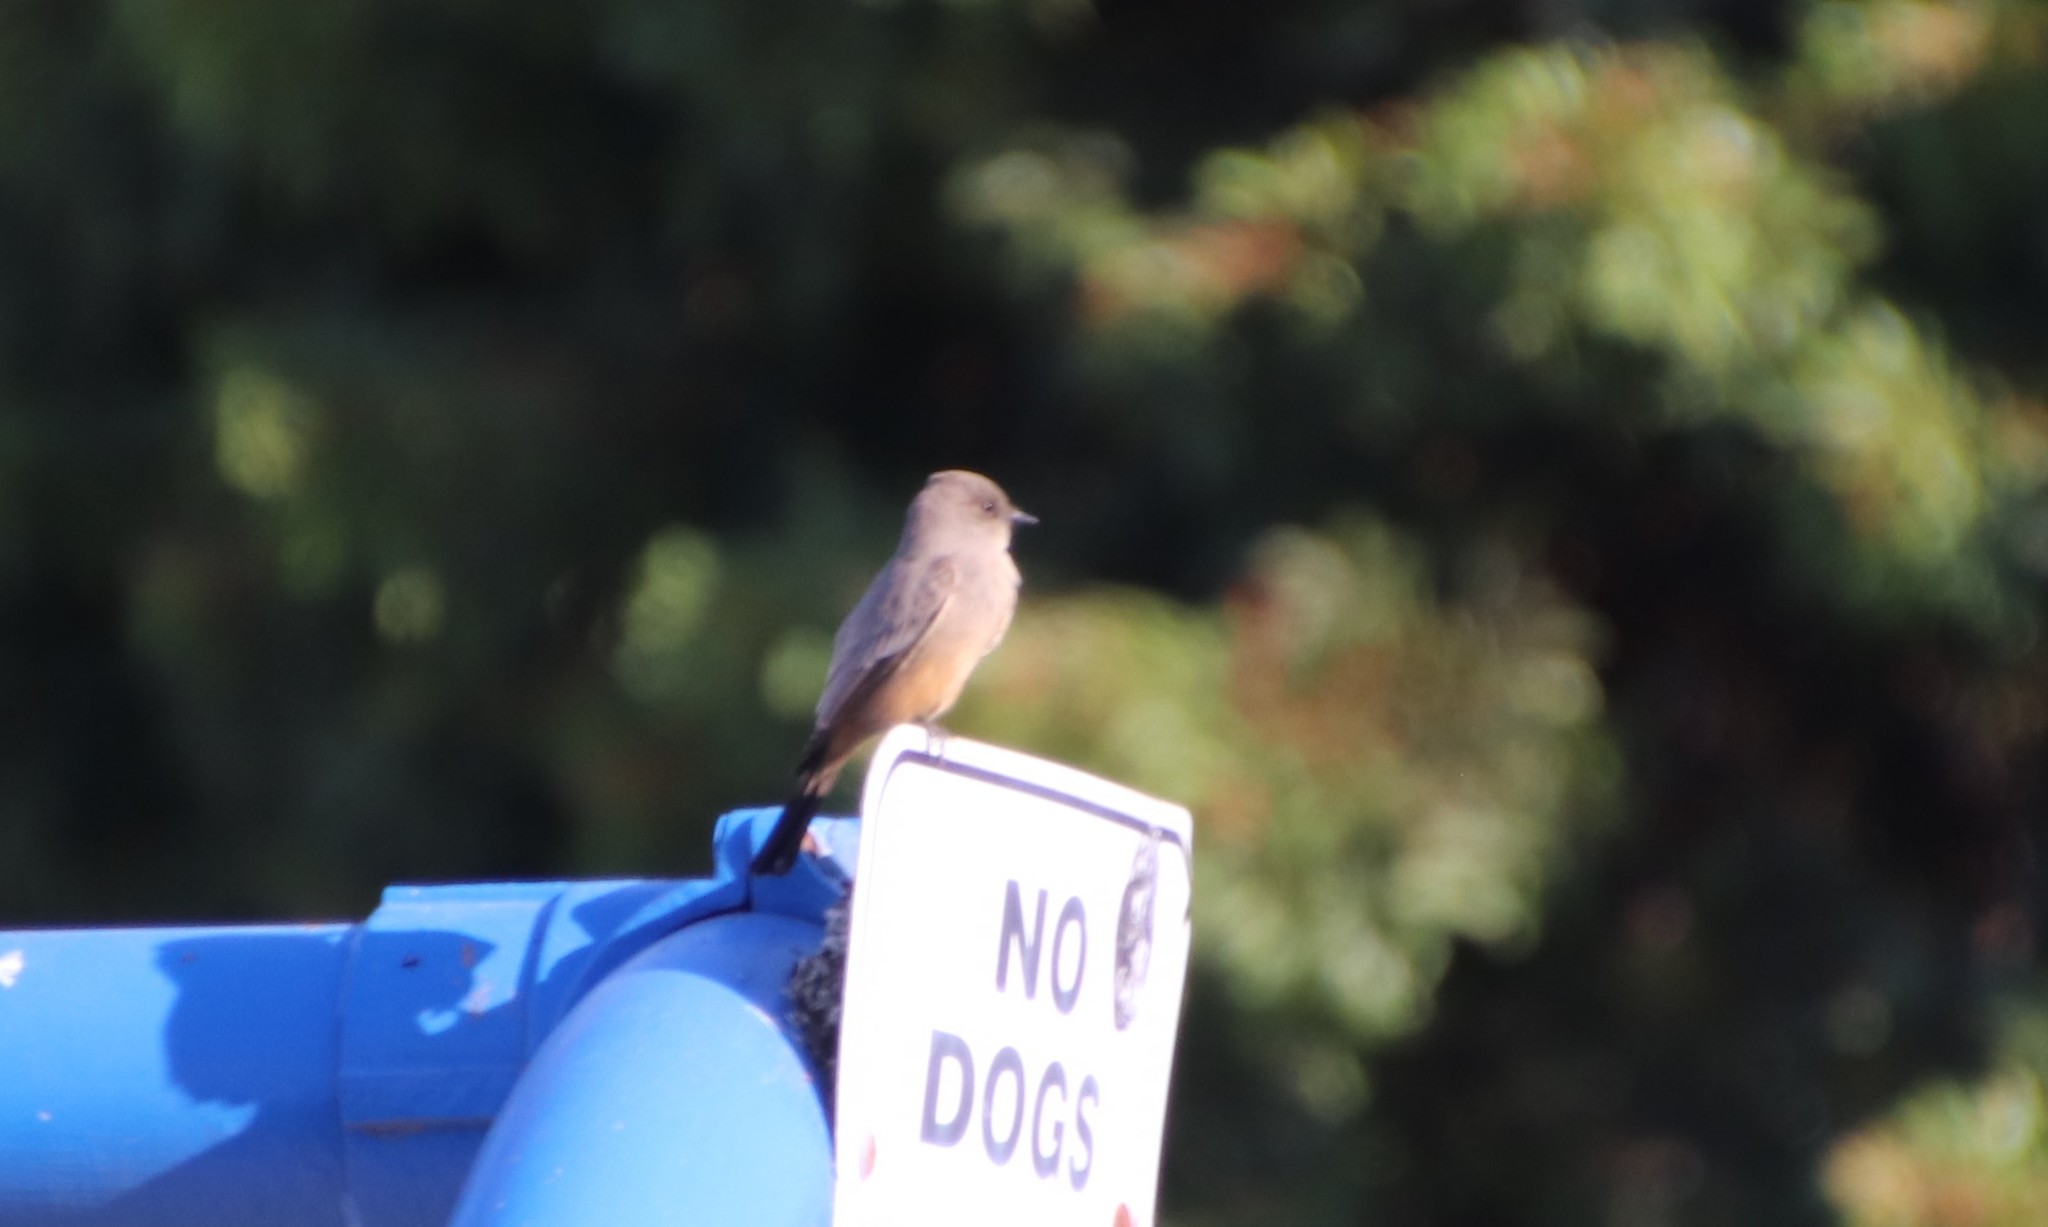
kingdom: Animalia
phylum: Chordata
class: Aves
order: Passeriformes
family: Tyrannidae
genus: Sayornis
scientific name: Sayornis saya
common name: Say's phoebe
